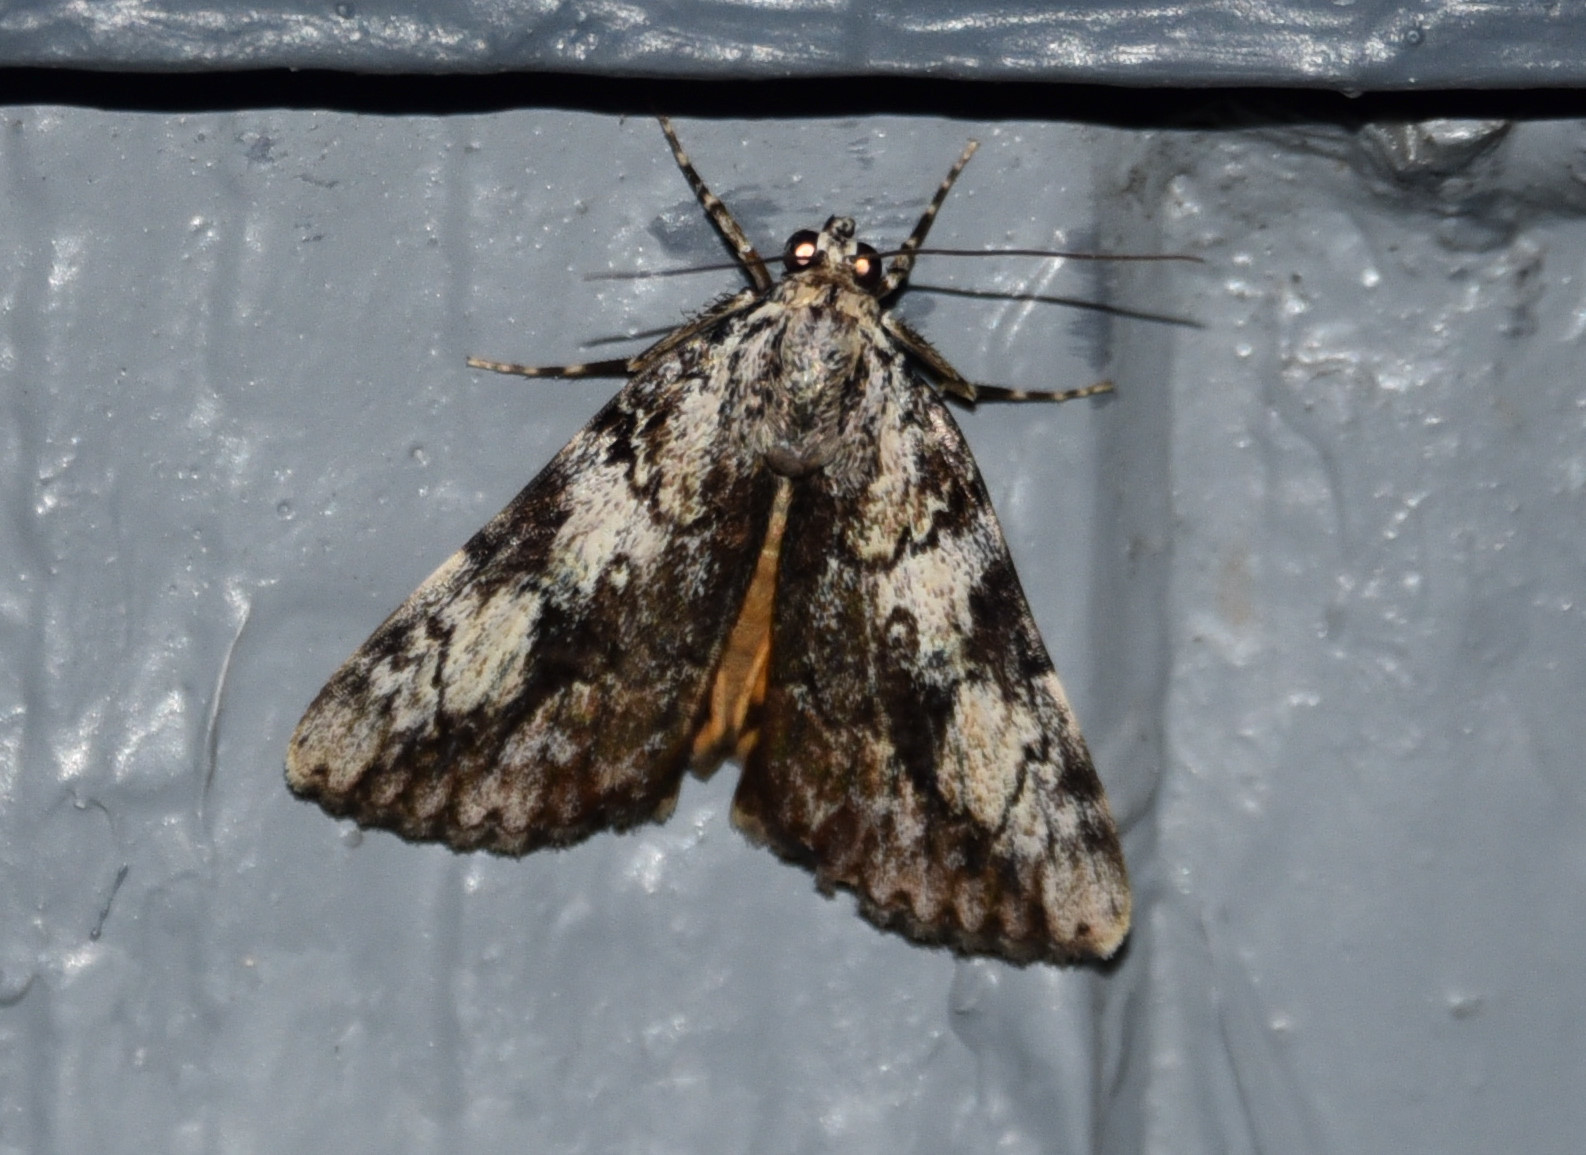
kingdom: Animalia
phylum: Arthropoda
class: Insecta
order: Lepidoptera
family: Erebidae
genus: Catocala
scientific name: Catocala amica
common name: Girlfriend underwing
